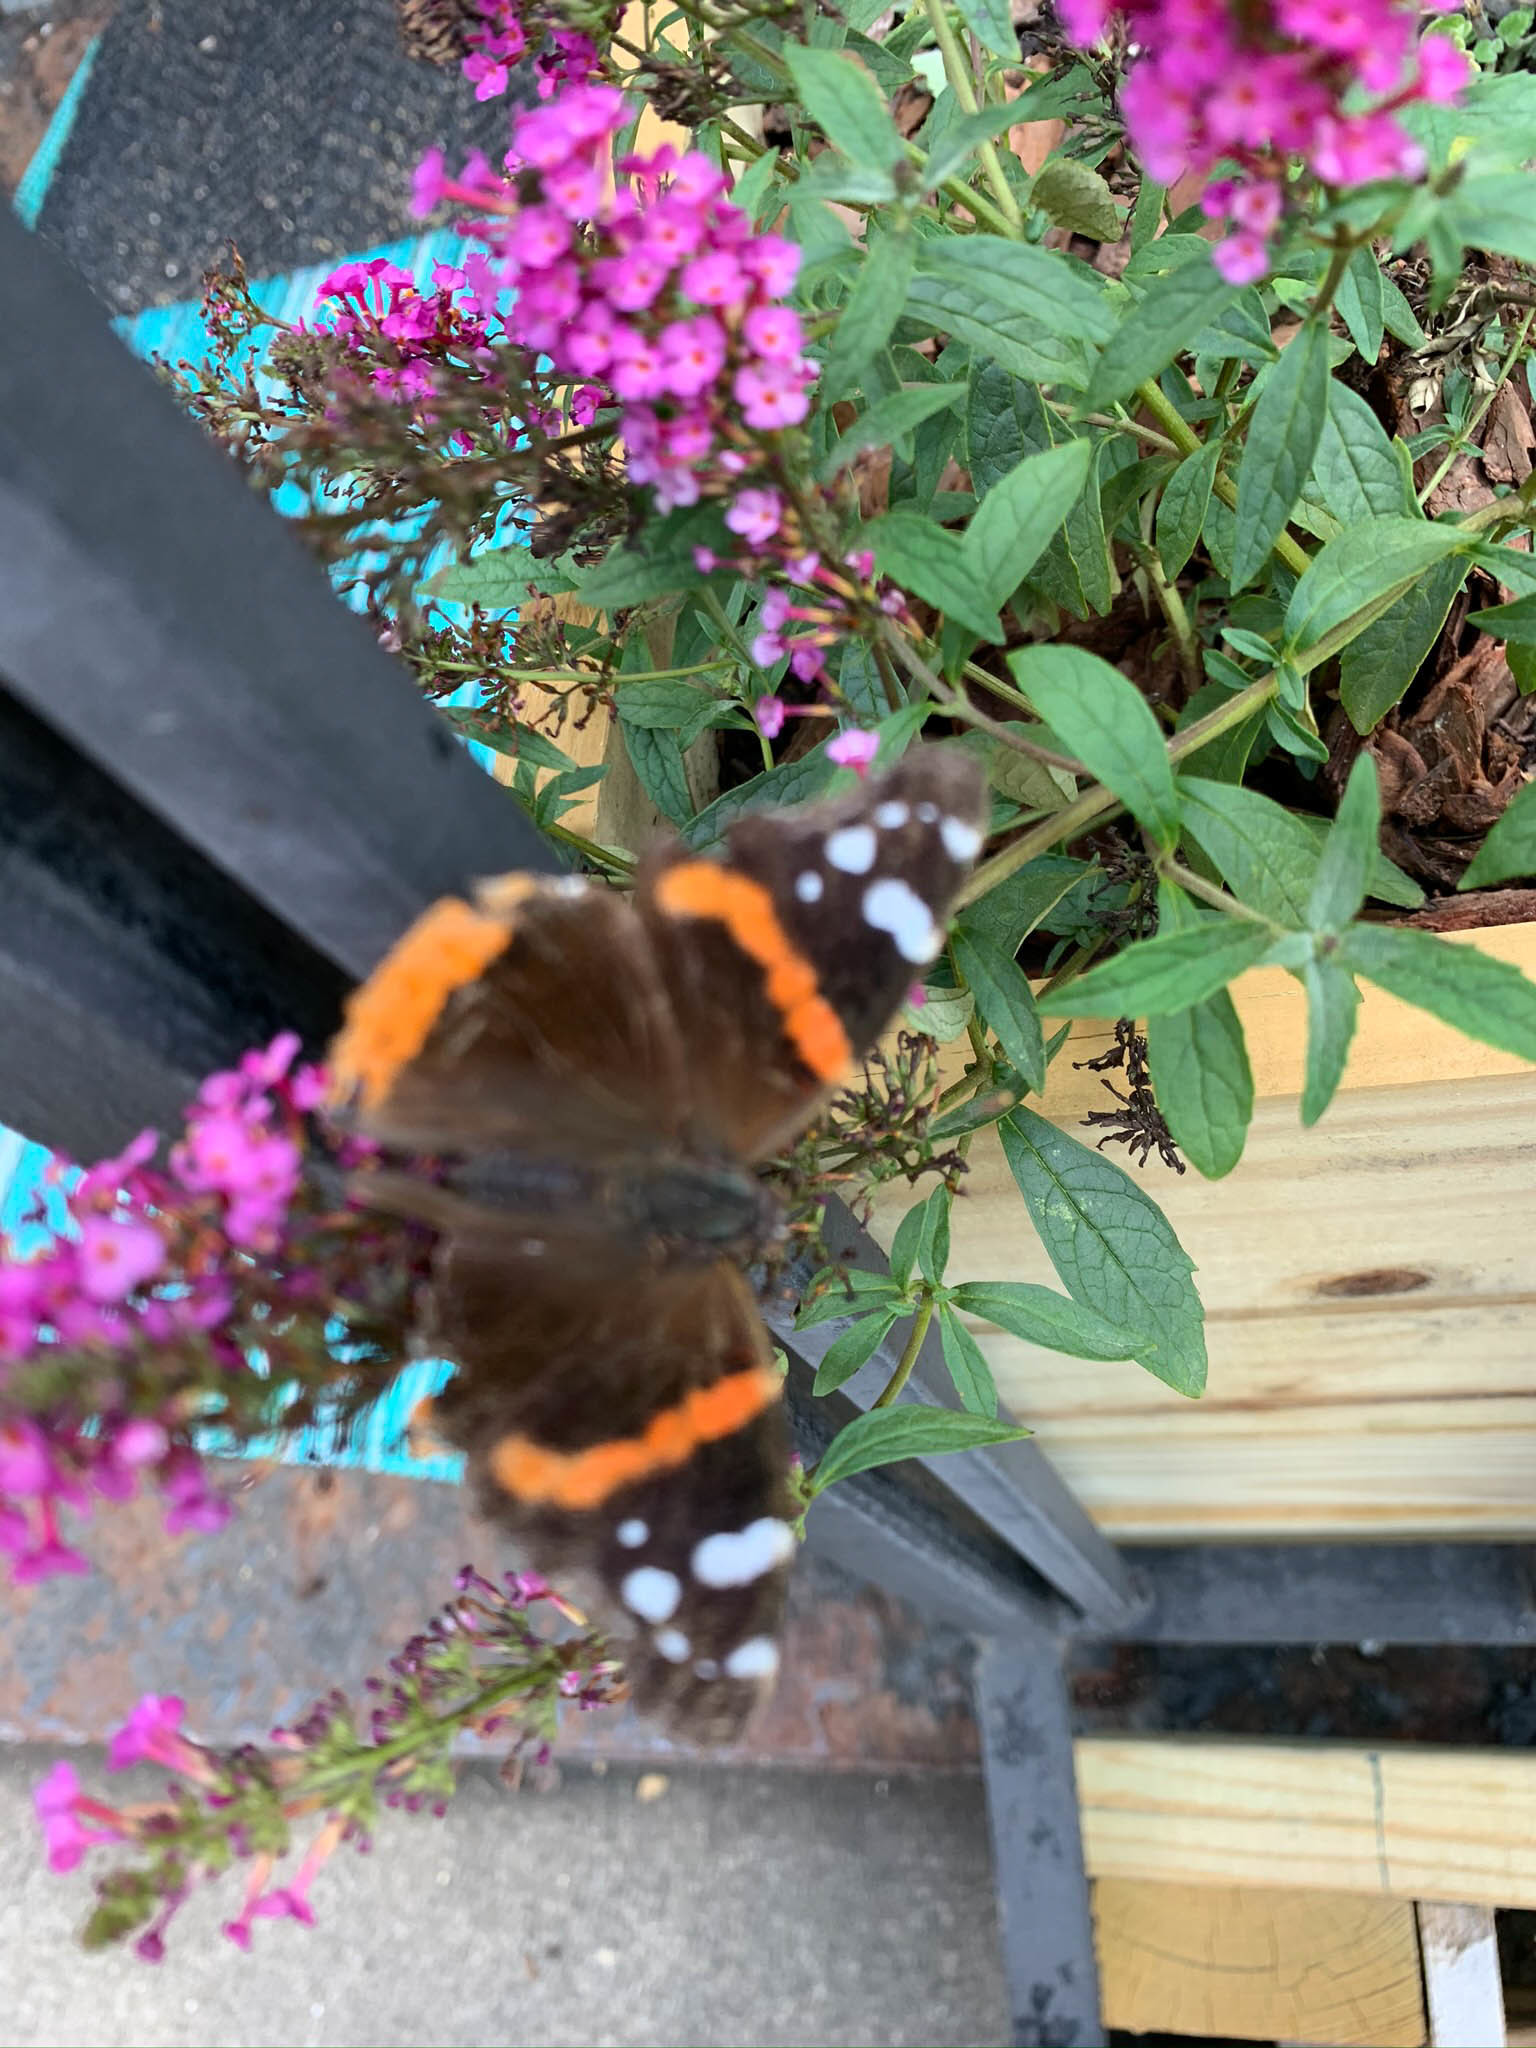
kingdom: Animalia
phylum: Arthropoda
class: Insecta
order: Lepidoptera
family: Nymphalidae
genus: Vanessa
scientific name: Vanessa atalanta
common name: Red admiral
